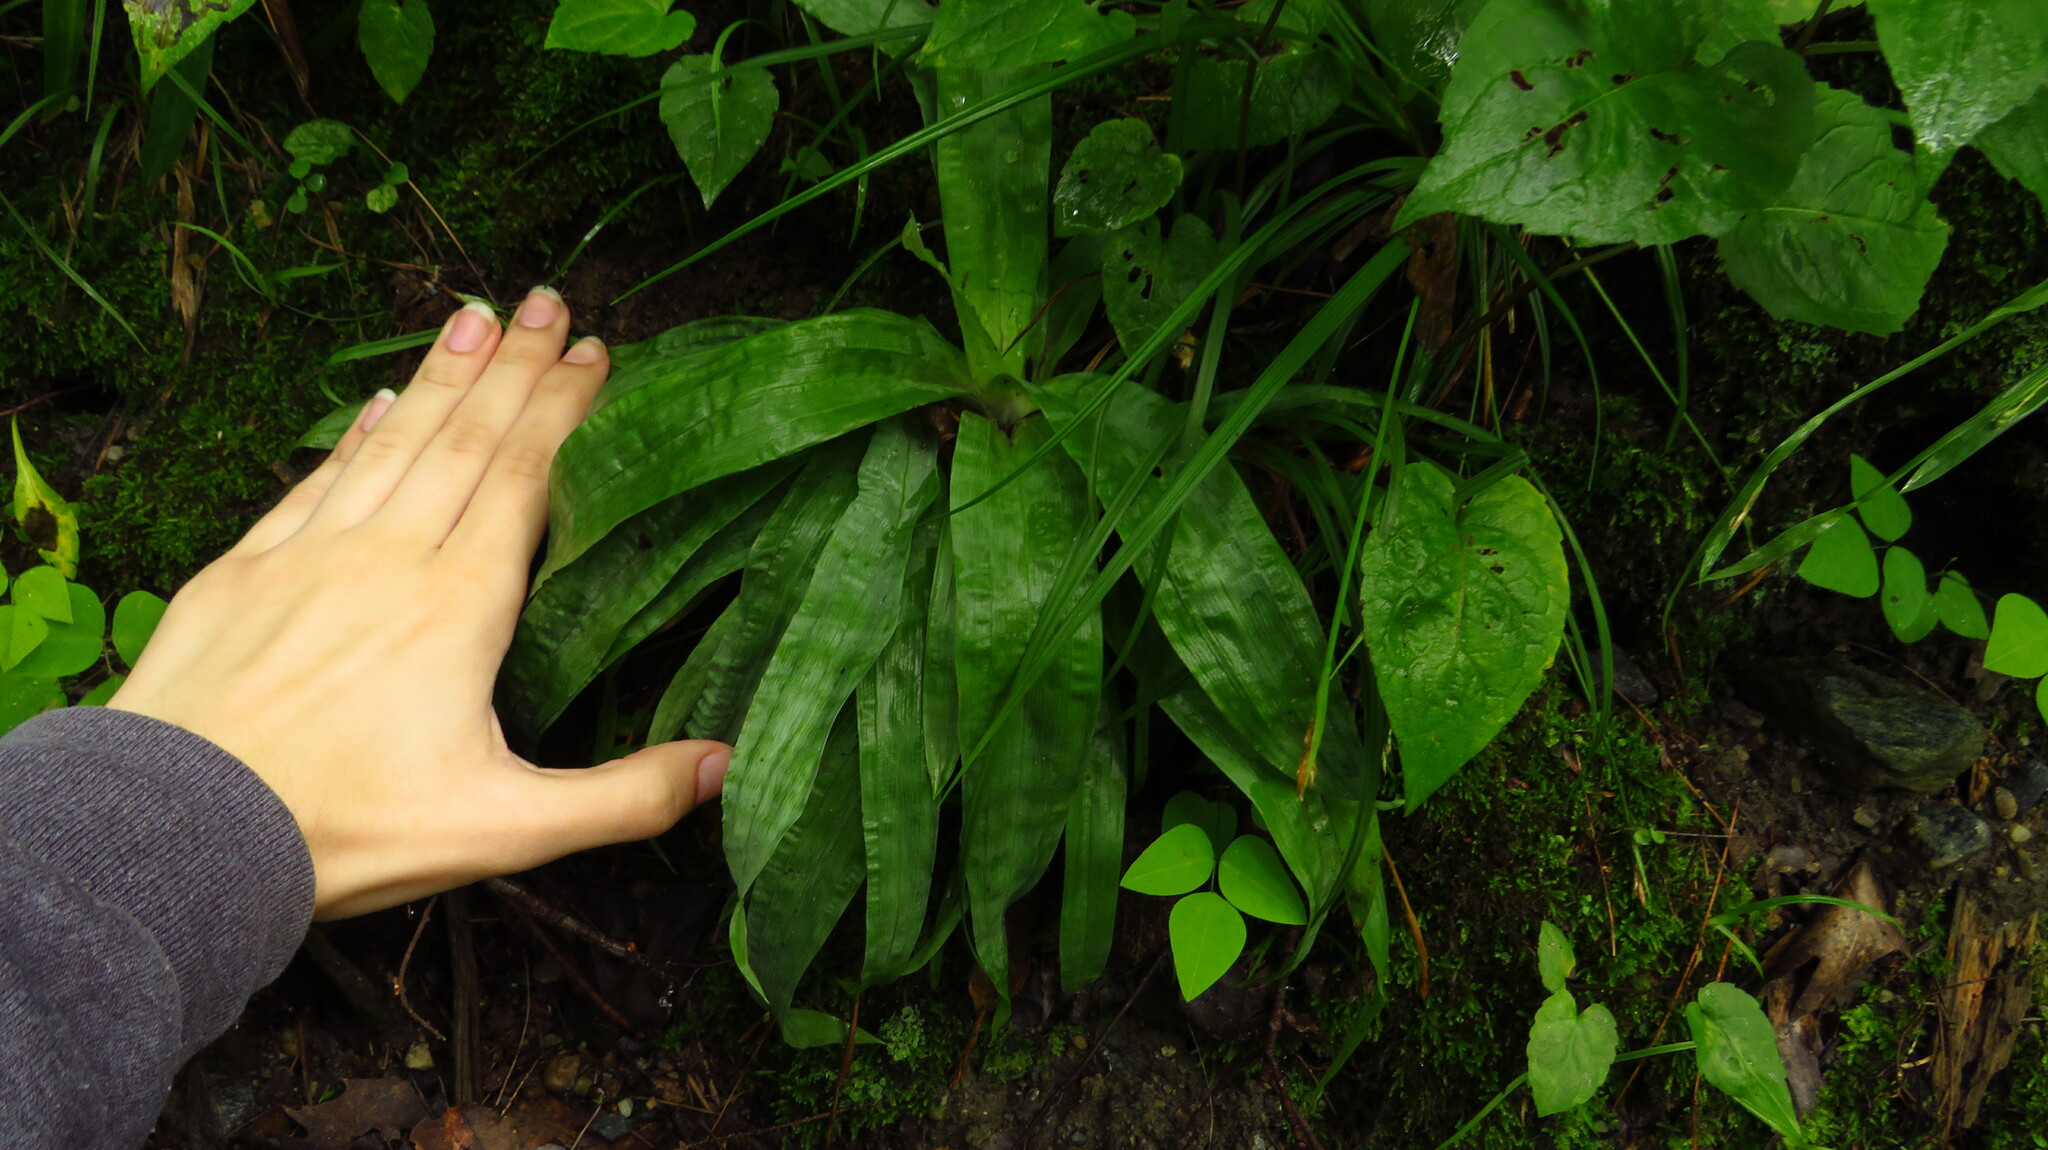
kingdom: Plantae
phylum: Tracheophyta
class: Liliopsida
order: Poales
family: Cyperaceae
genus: Carex
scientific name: Carex plantaginea
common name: Plantain-leaved sedge
